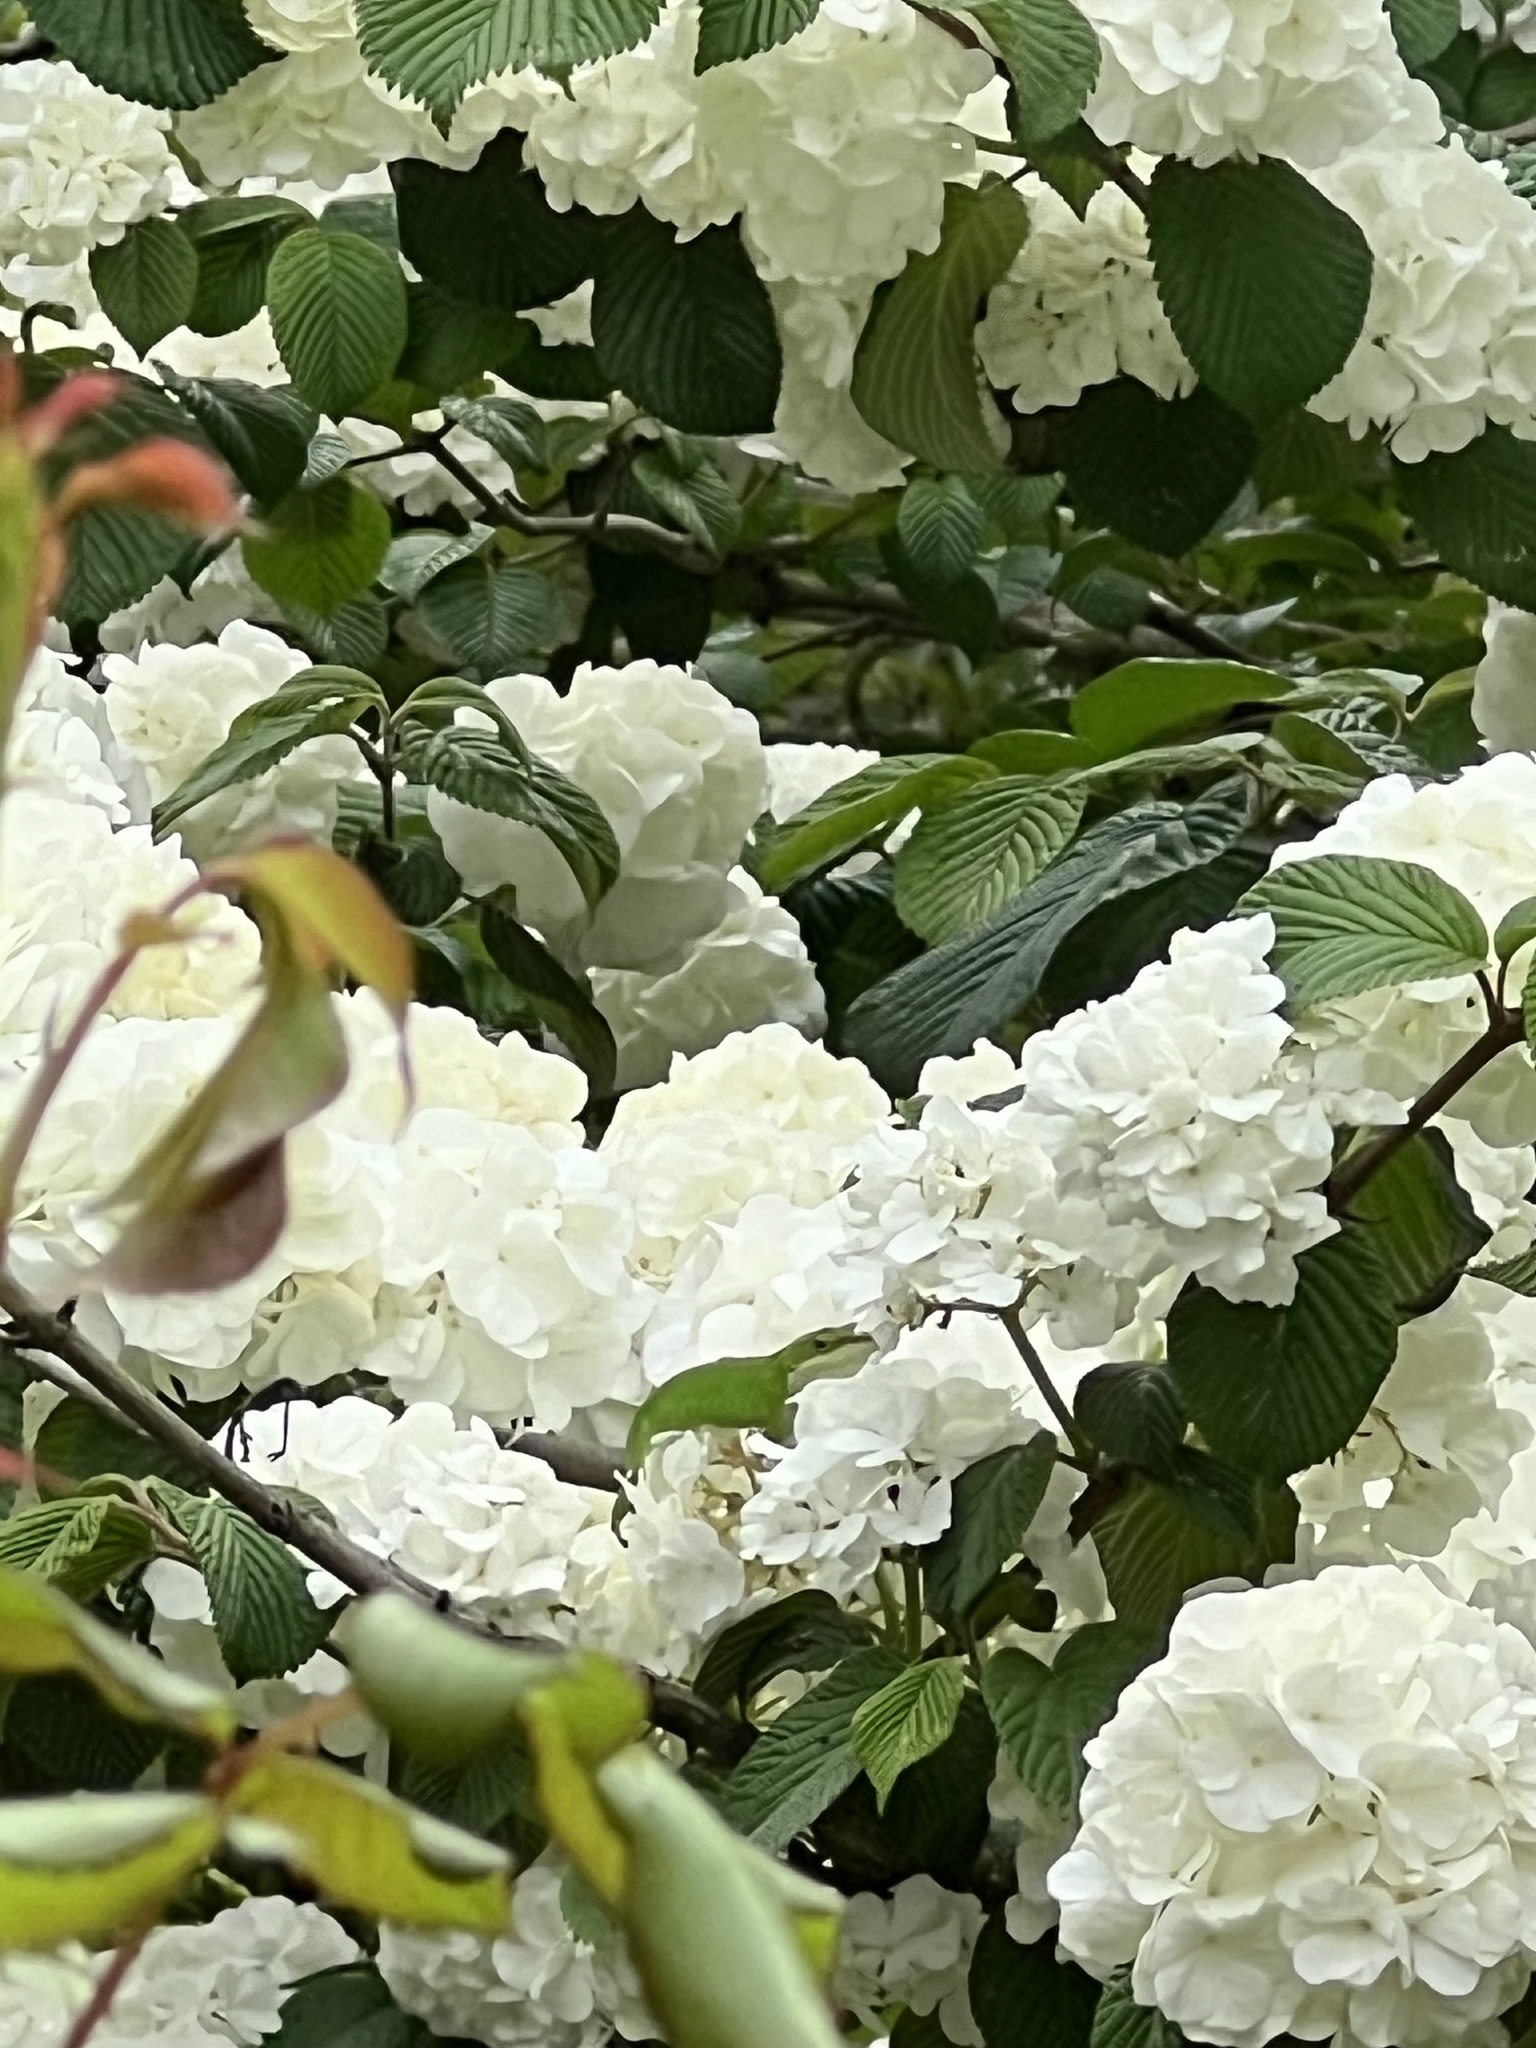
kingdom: Animalia
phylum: Chordata
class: Squamata
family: Dactyloidae
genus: Anolis
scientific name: Anolis carolinensis
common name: Green anole
